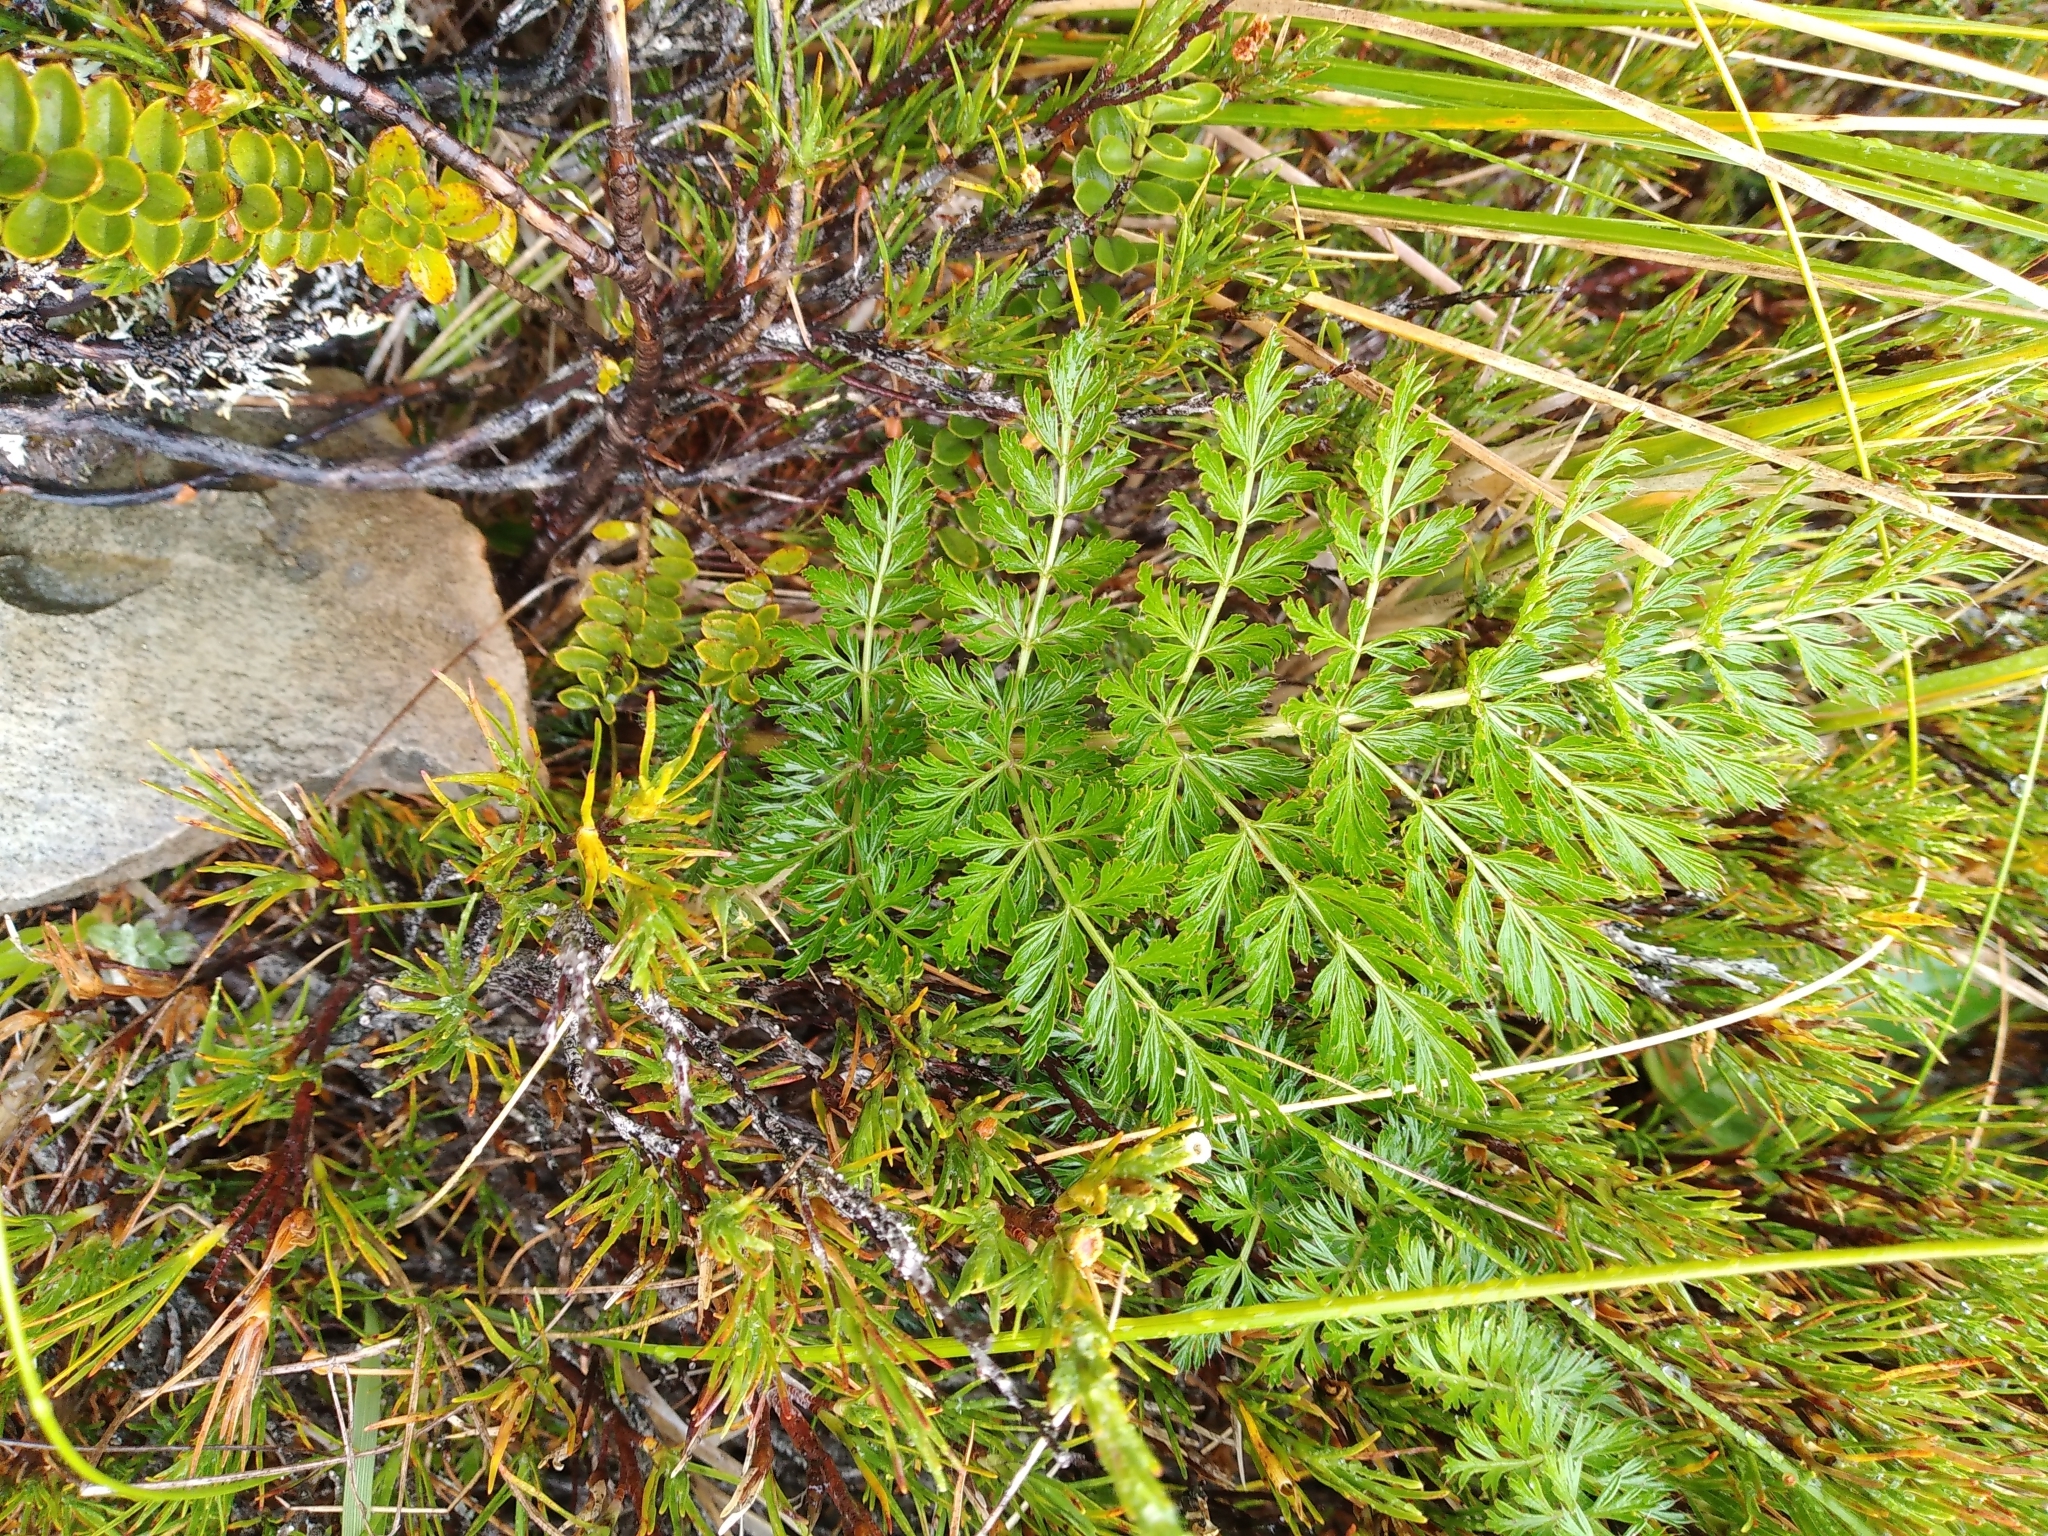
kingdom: Plantae
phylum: Tracheophyta
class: Magnoliopsida
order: Apiales
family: Apiaceae
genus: Anisotome
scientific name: Anisotome haastii
